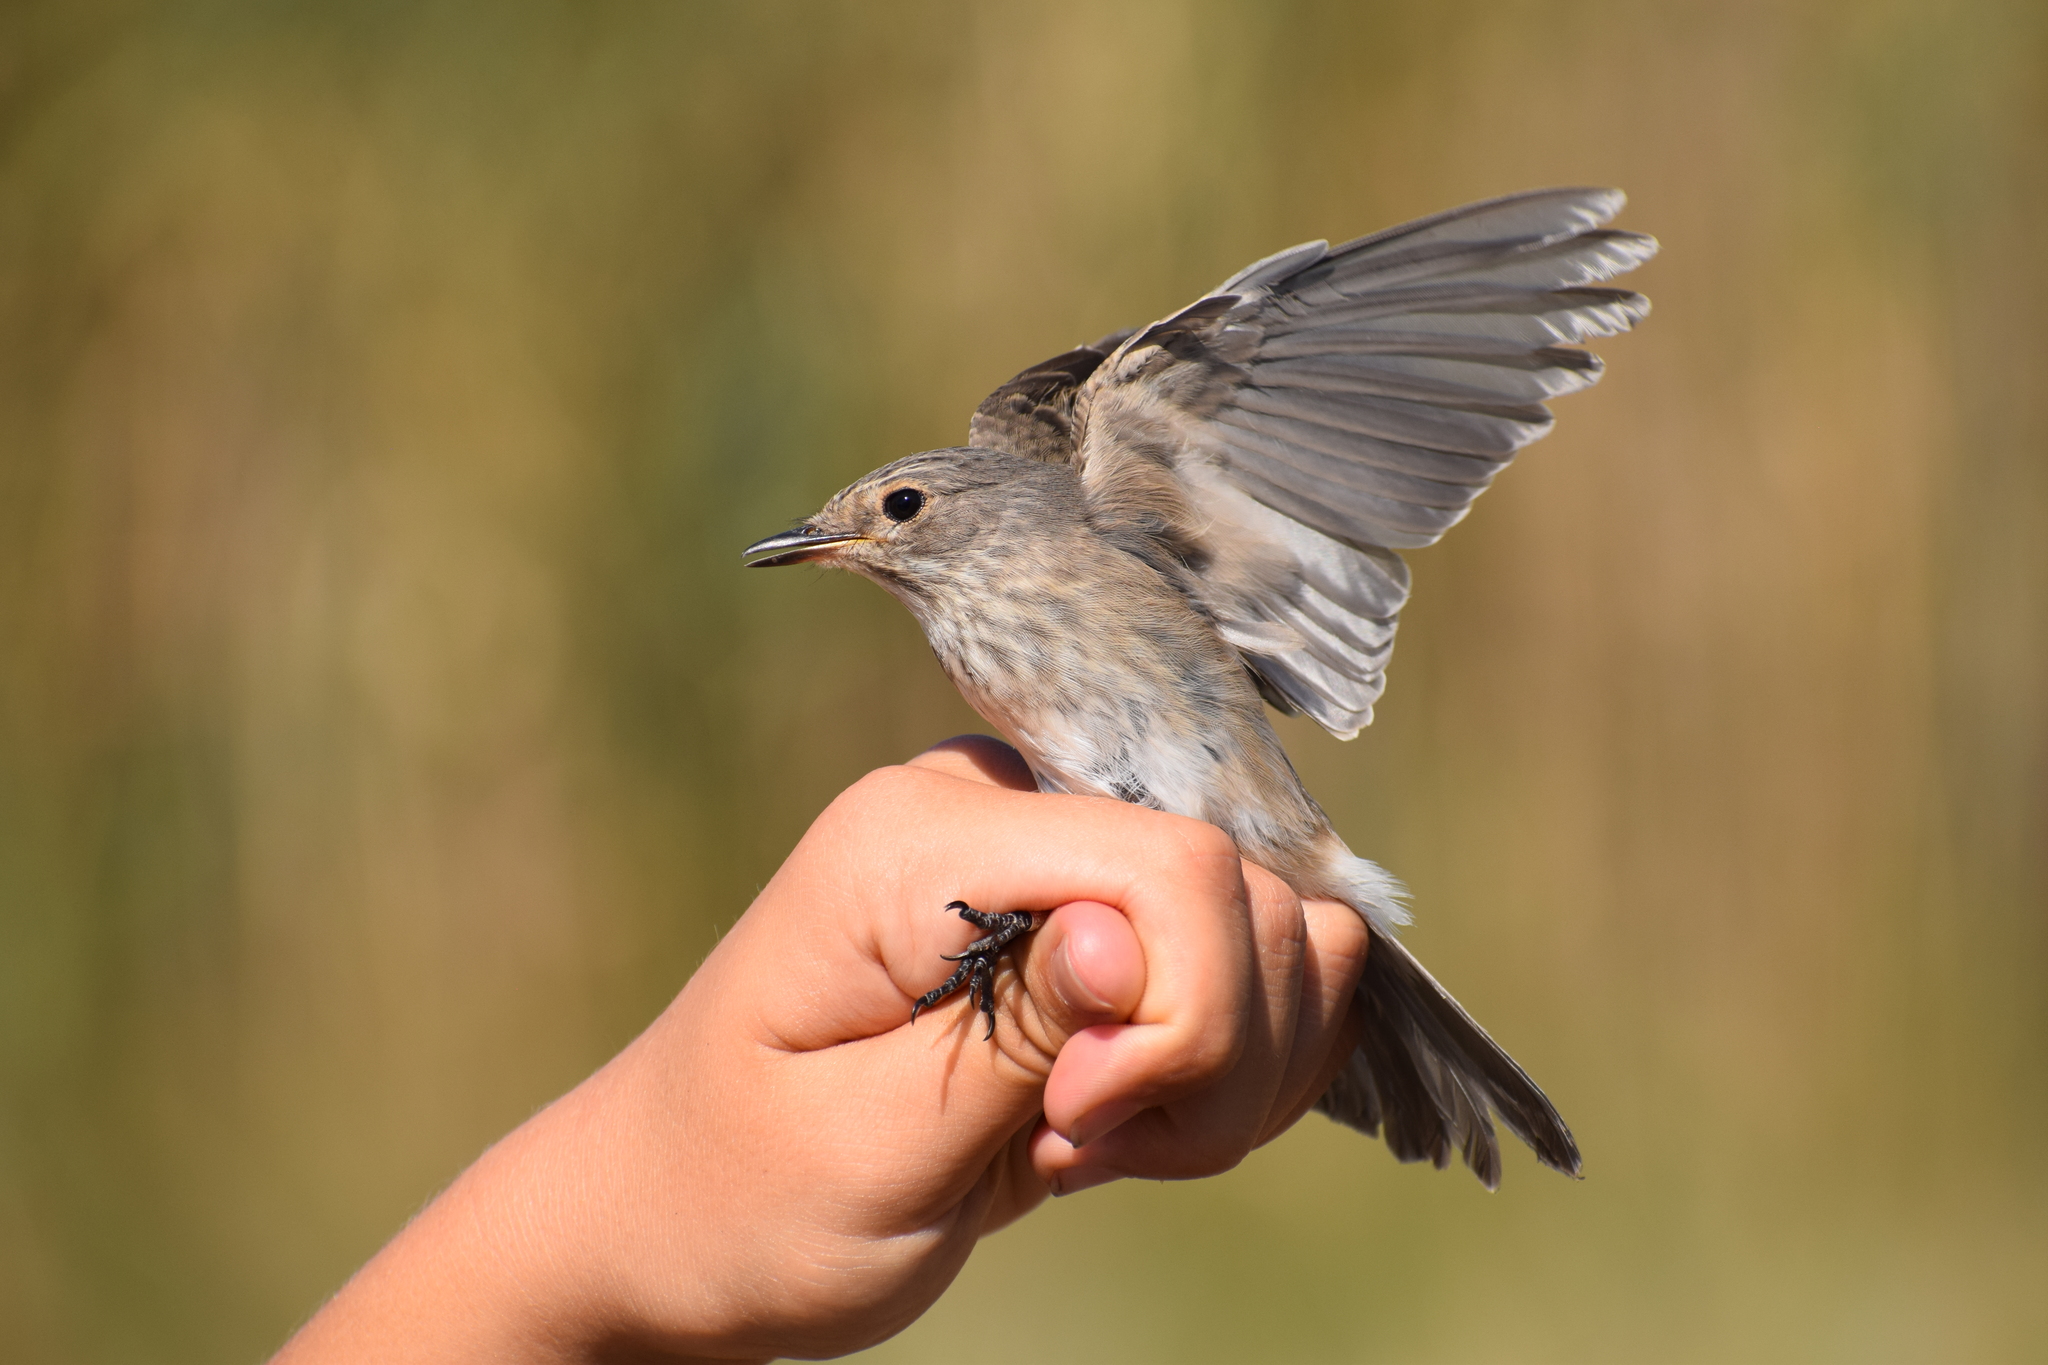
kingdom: Animalia
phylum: Chordata
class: Aves
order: Passeriformes
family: Muscicapidae
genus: Muscicapa
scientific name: Muscicapa striata
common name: Spotted flycatcher
